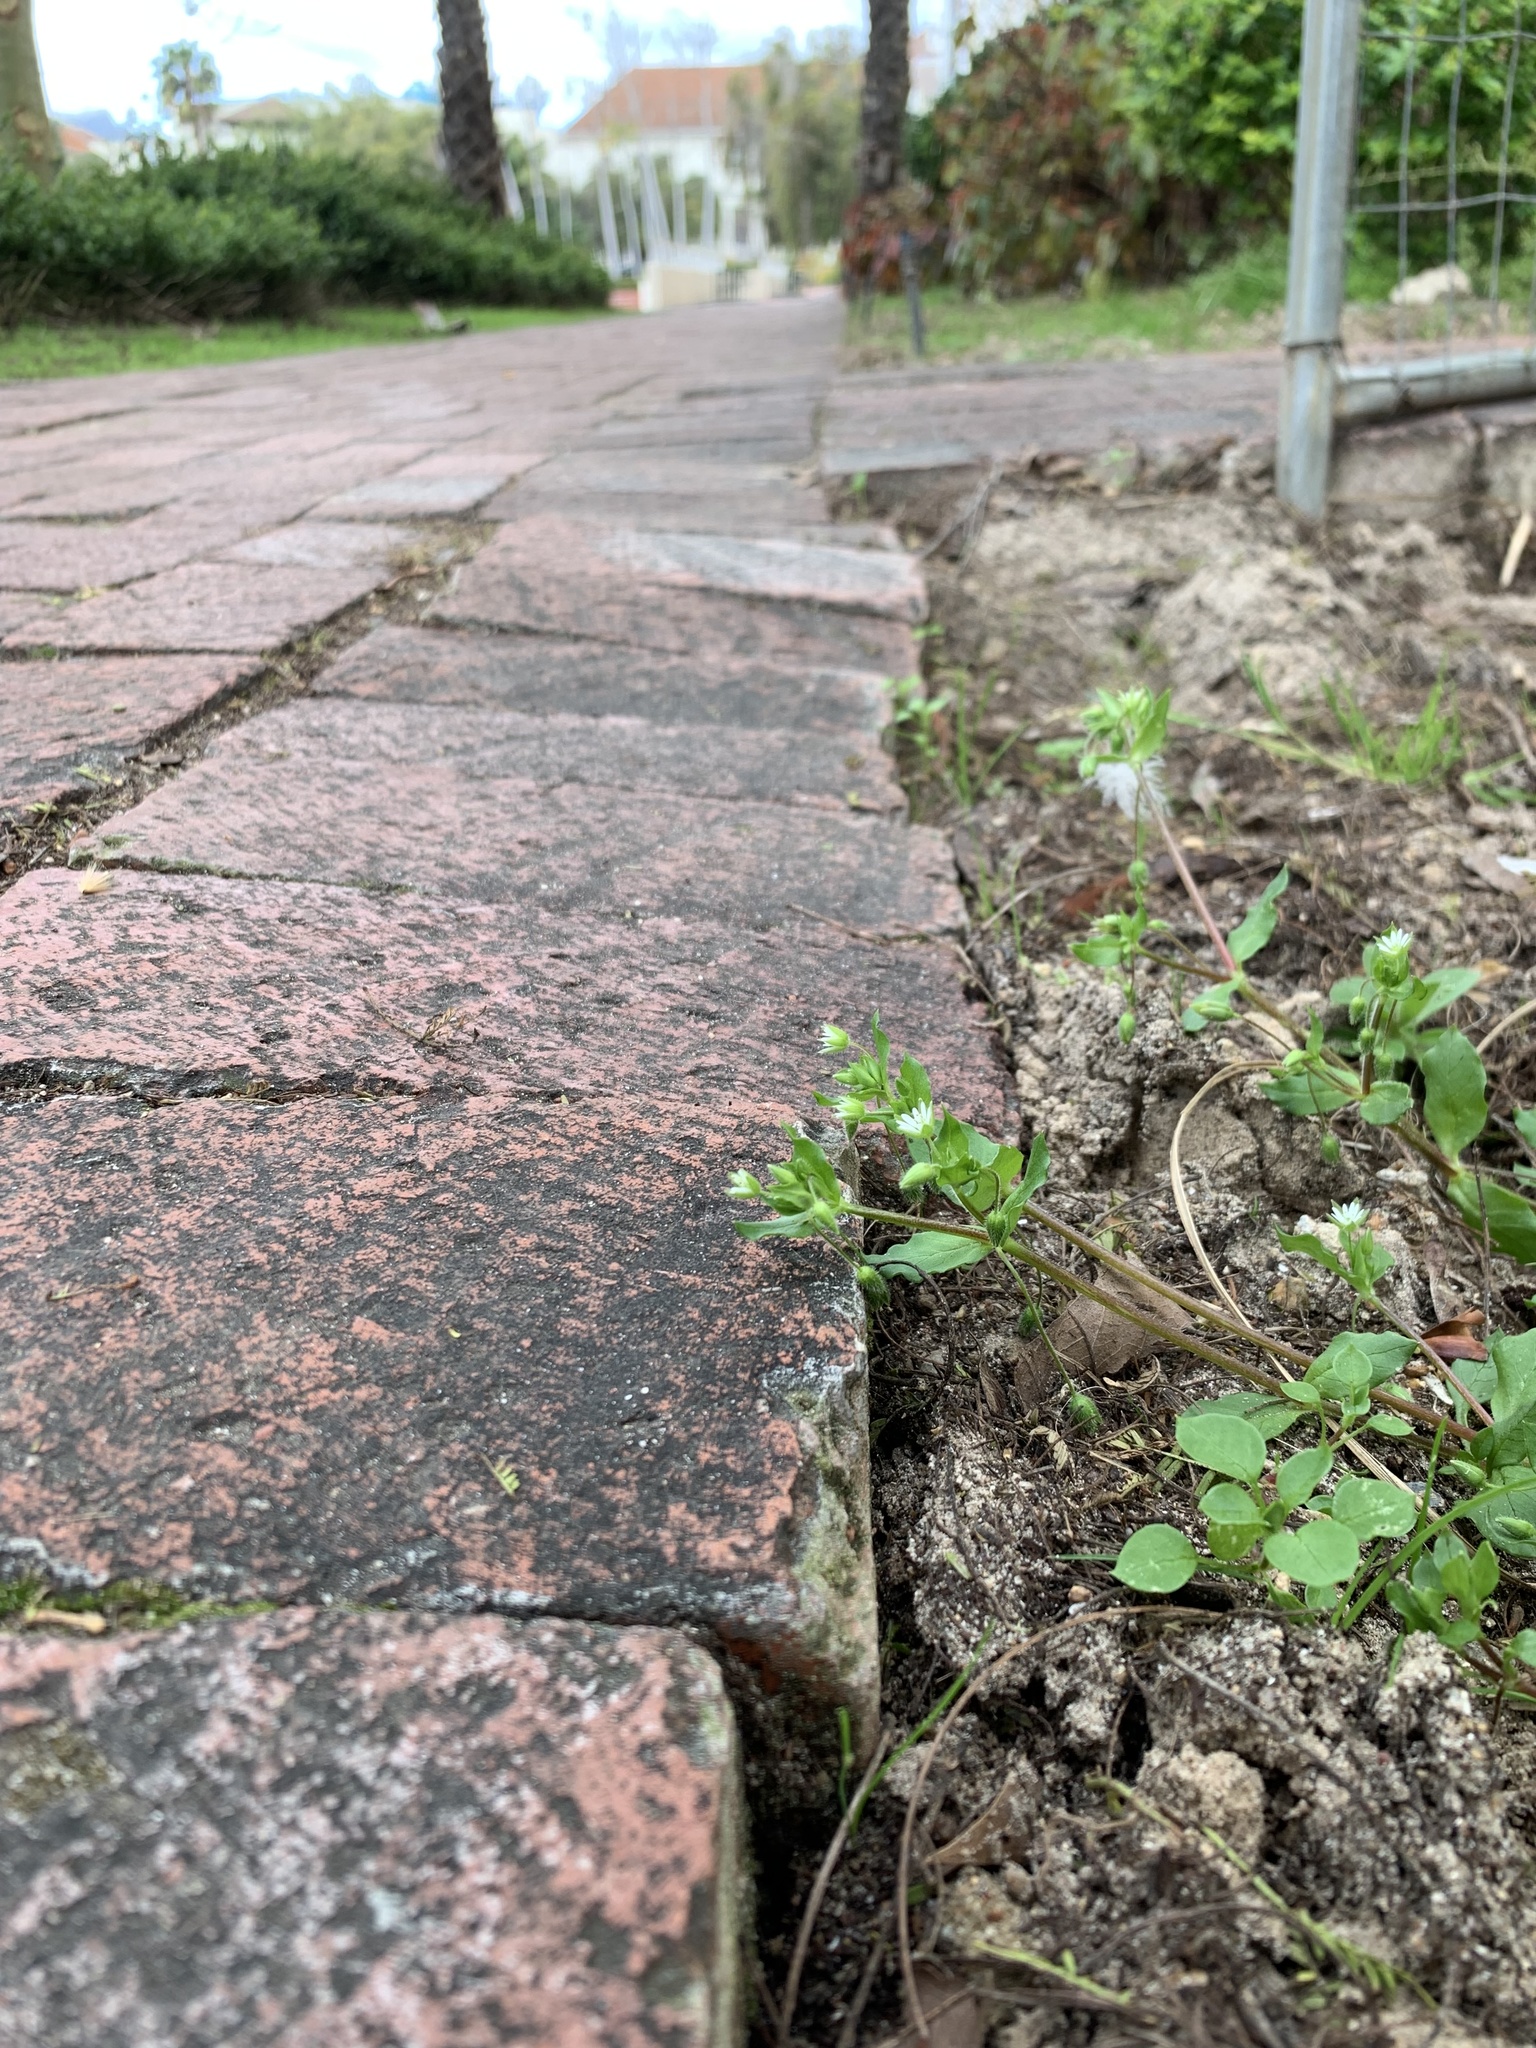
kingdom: Plantae
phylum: Tracheophyta
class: Magnoliopsida
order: Caryophyllales
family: Caryophyllaceae
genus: Stellaria
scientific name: Stellaria media
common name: Common chickweed
